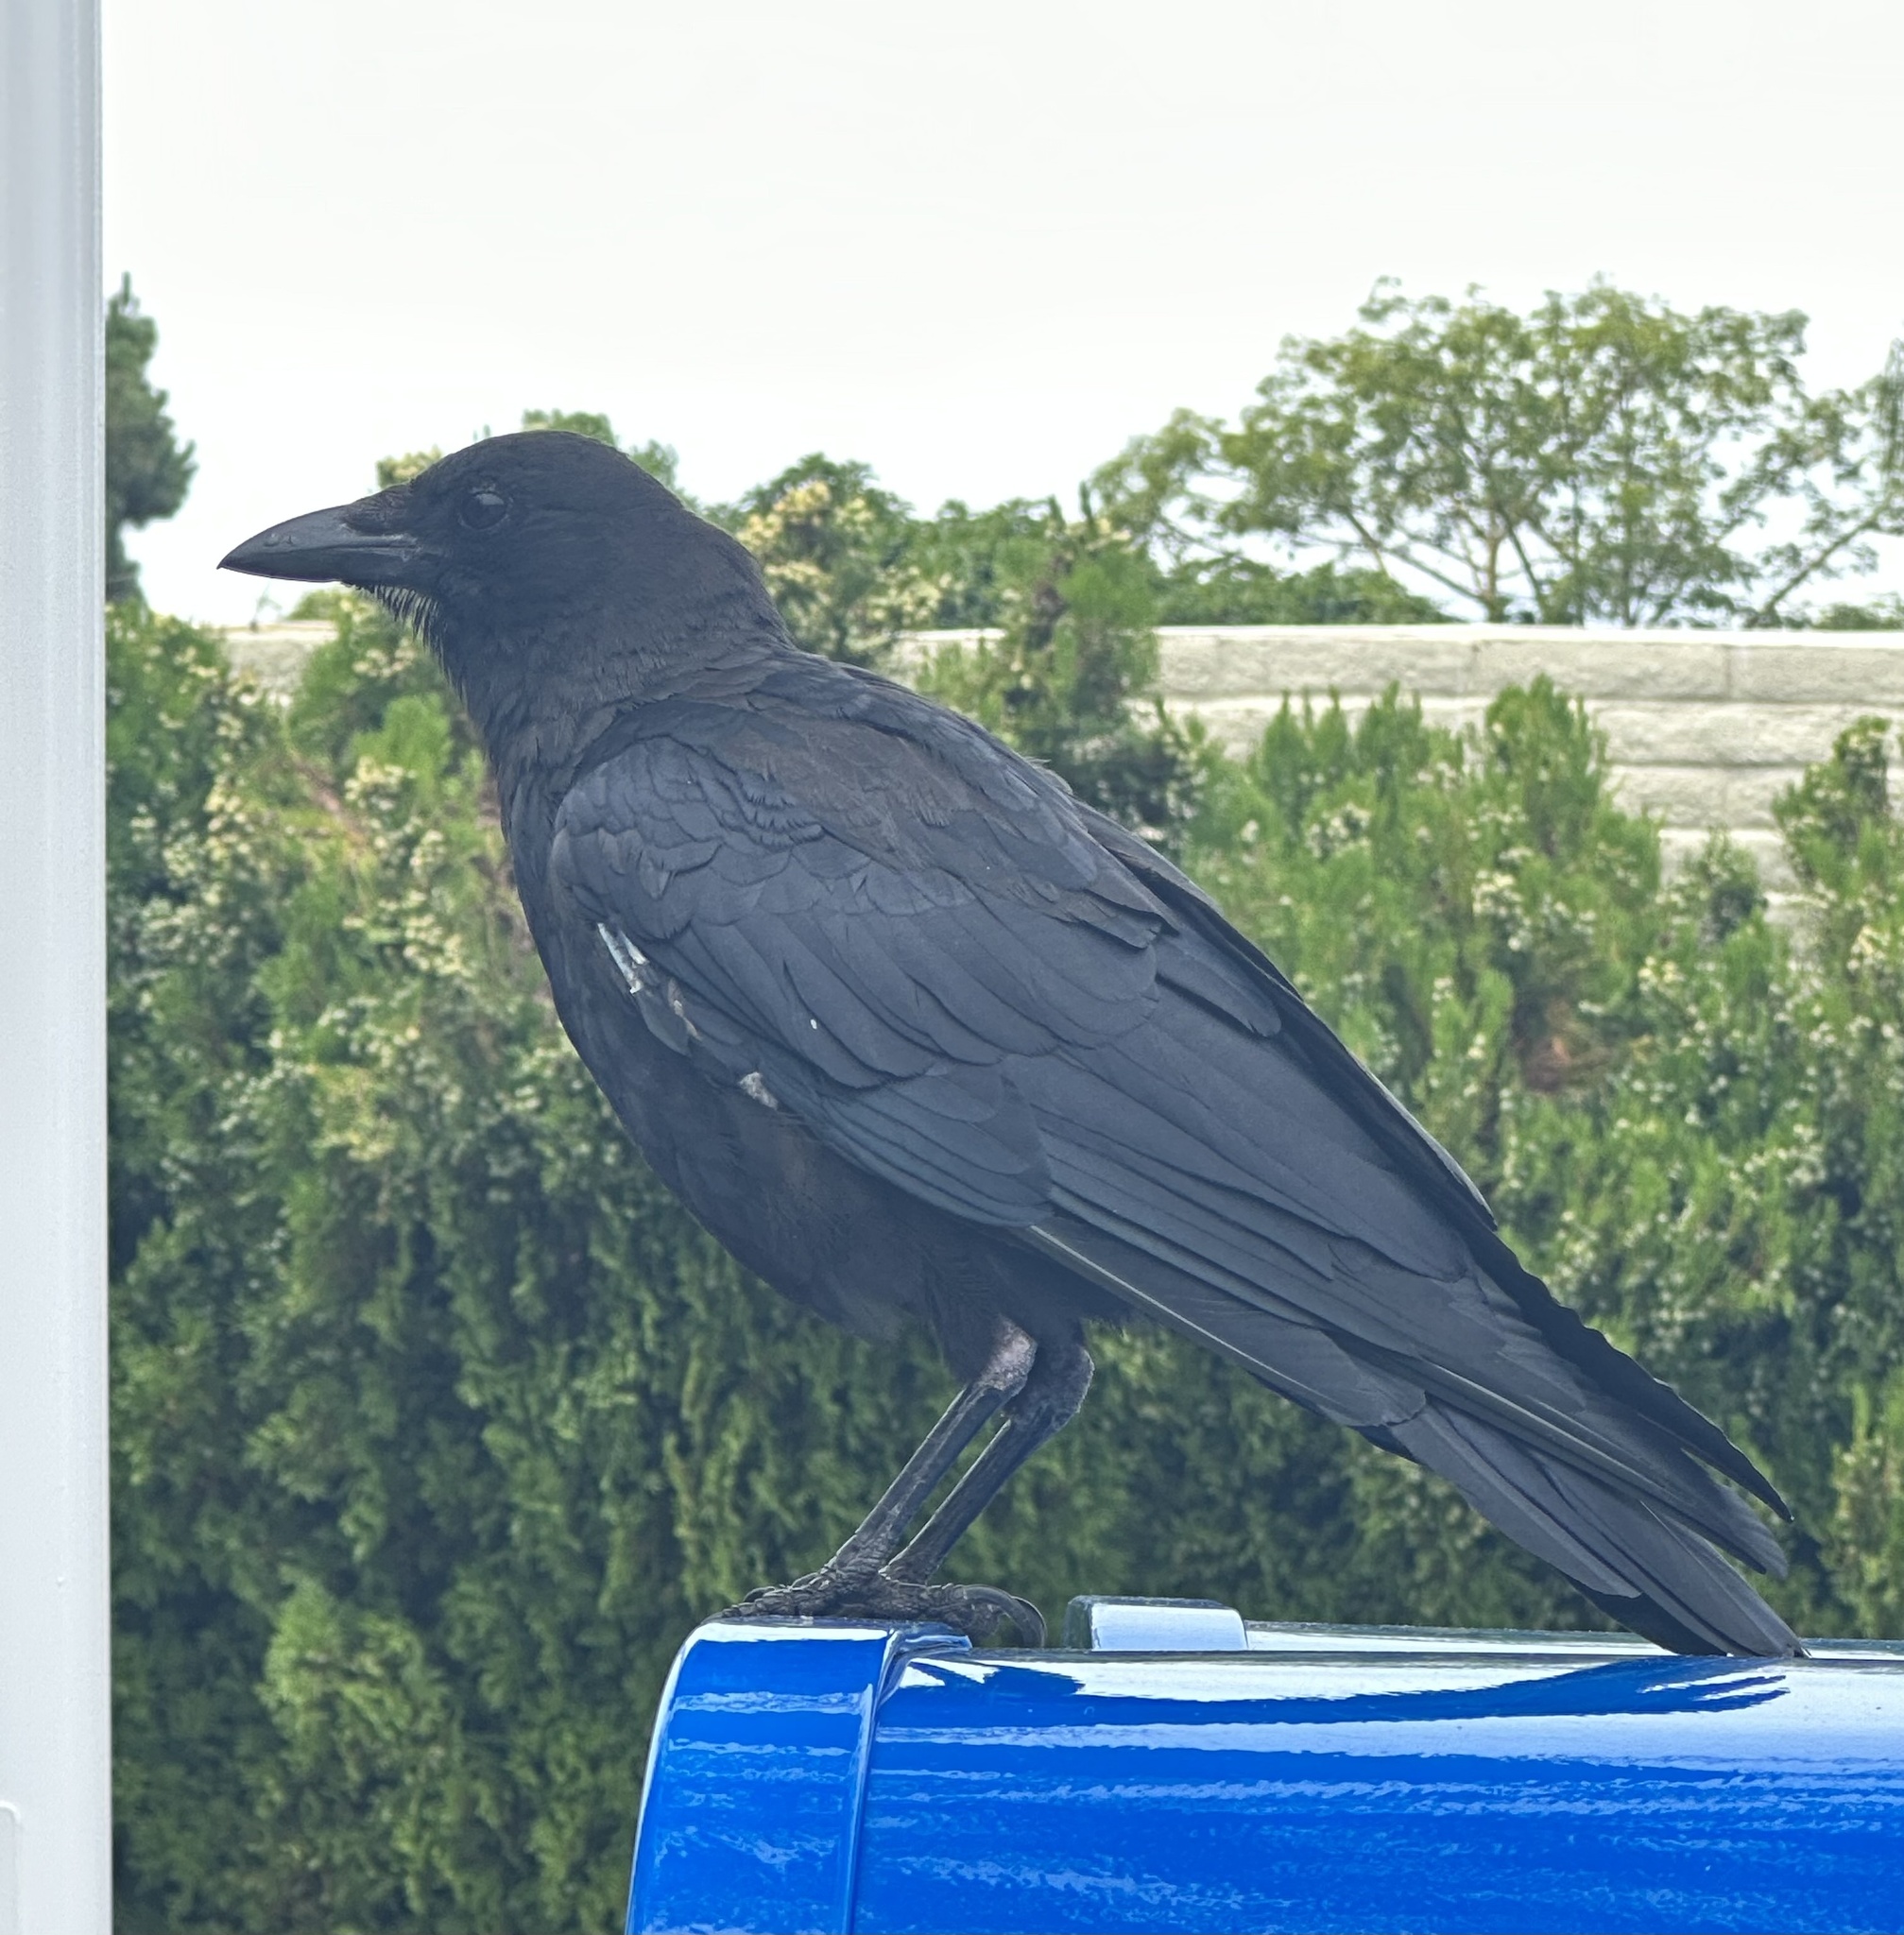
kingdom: Animalia
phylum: Chordata
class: Aves
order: Passeriformes
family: Corvidae
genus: Corvus
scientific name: Corvus brachyrhynchos
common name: American crow
